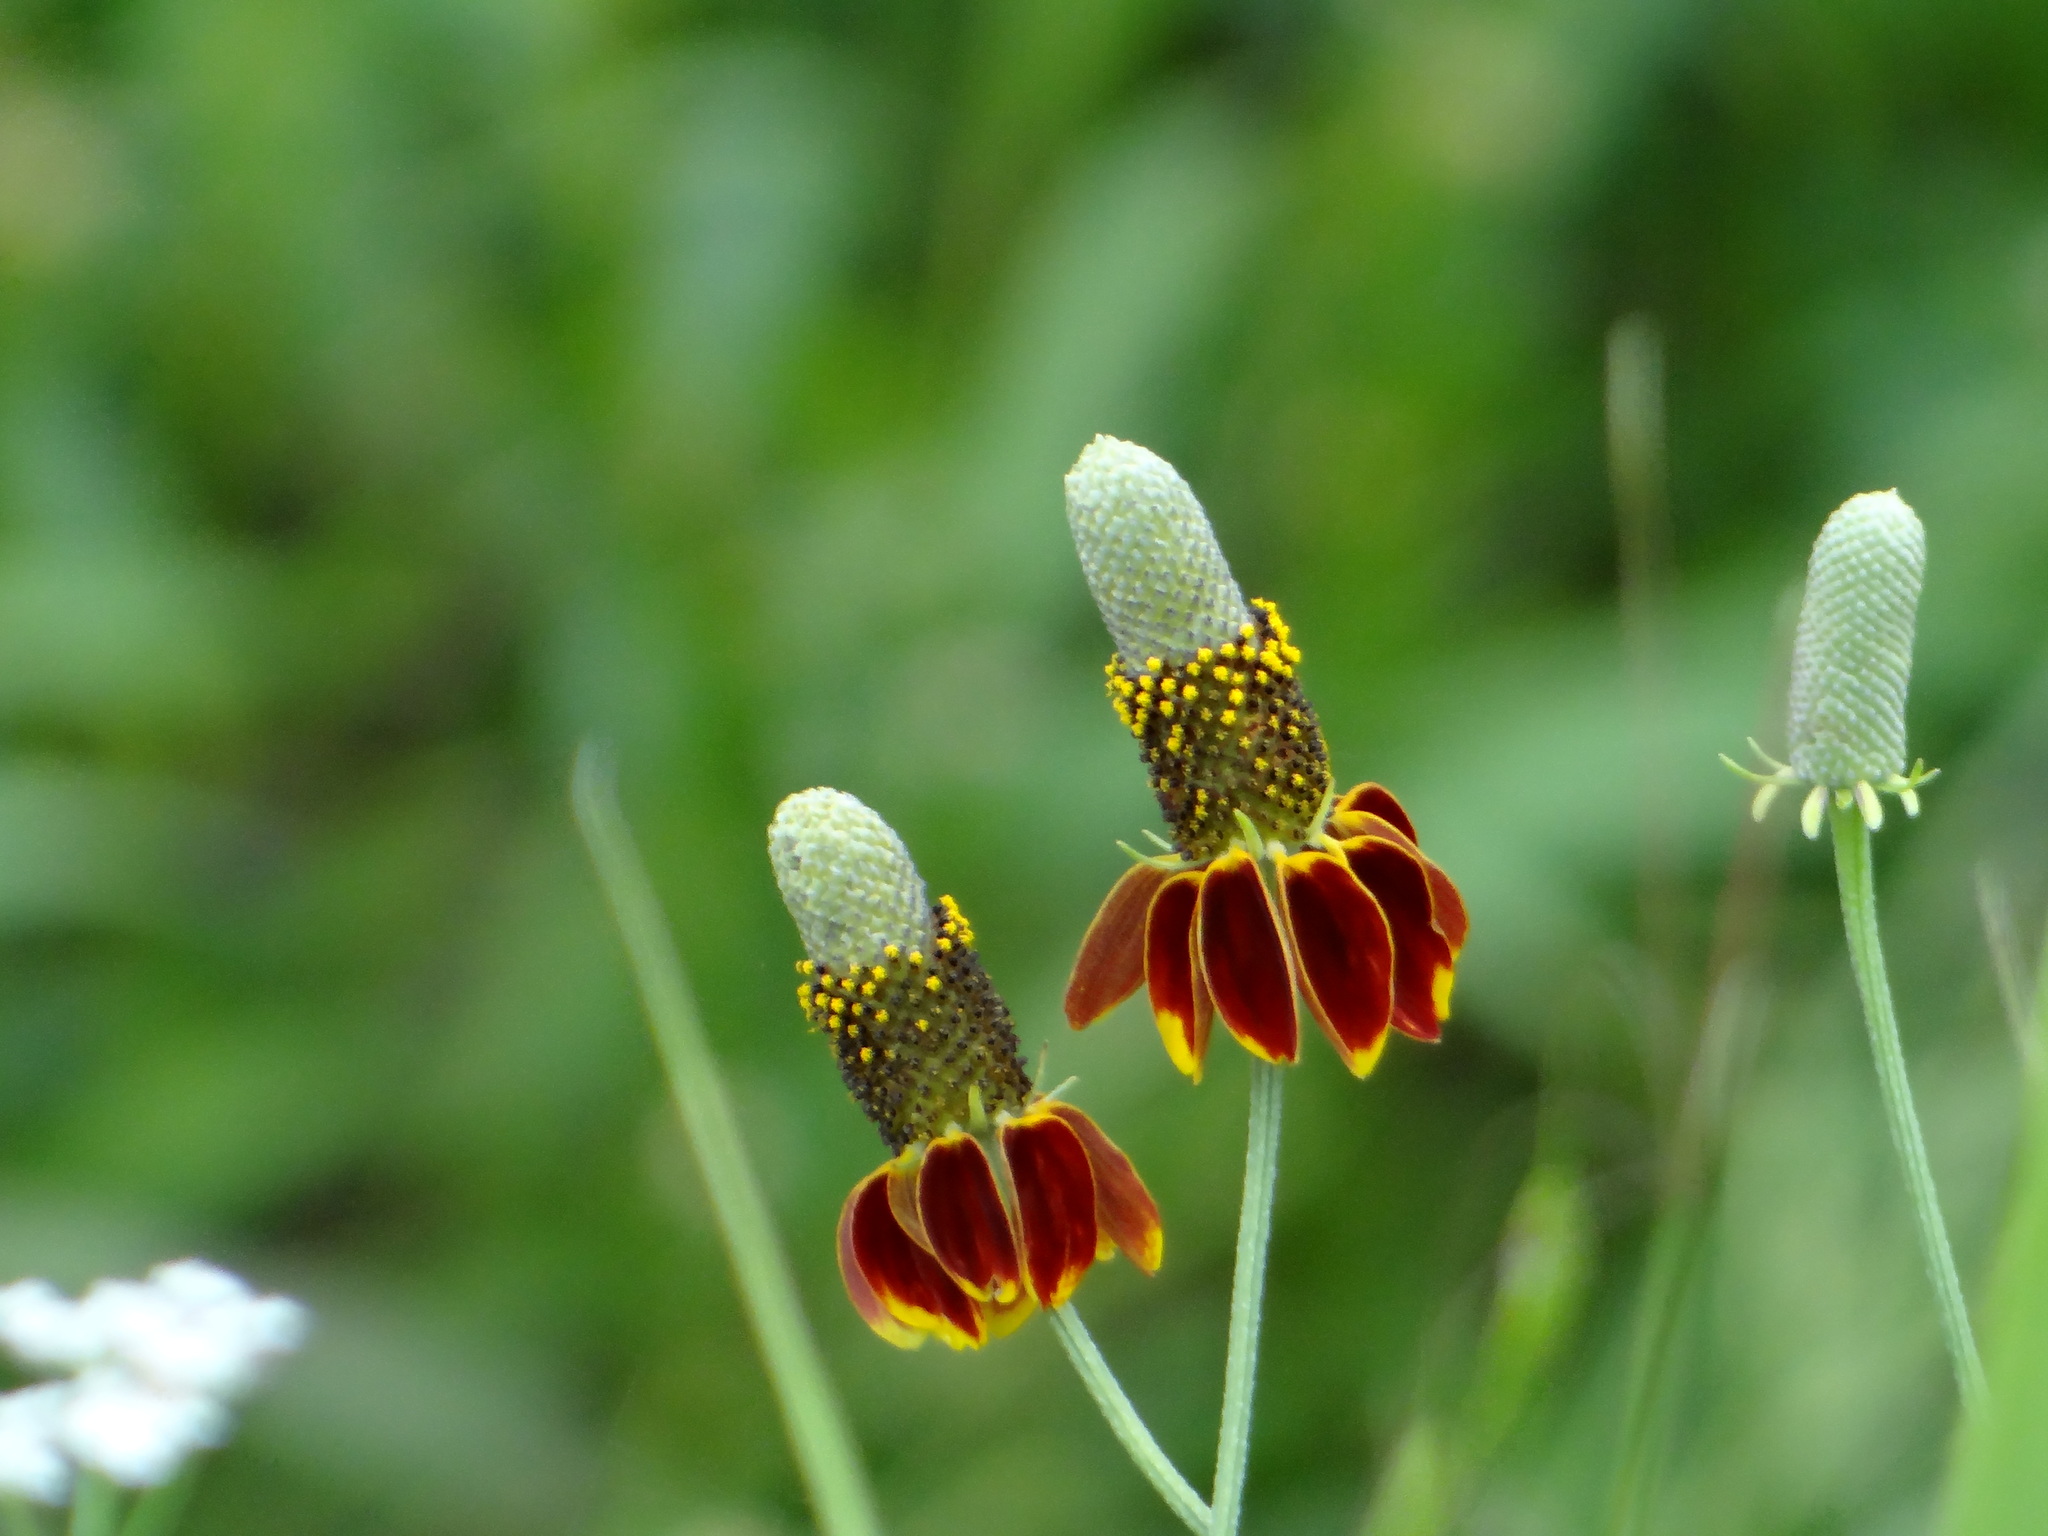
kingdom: Plantae
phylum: Tracheophyta
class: Magnoliopsida
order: Asterales
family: Asteraceae
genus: Ratibida
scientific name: Ratibida columnifera
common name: Prairie coneflower
